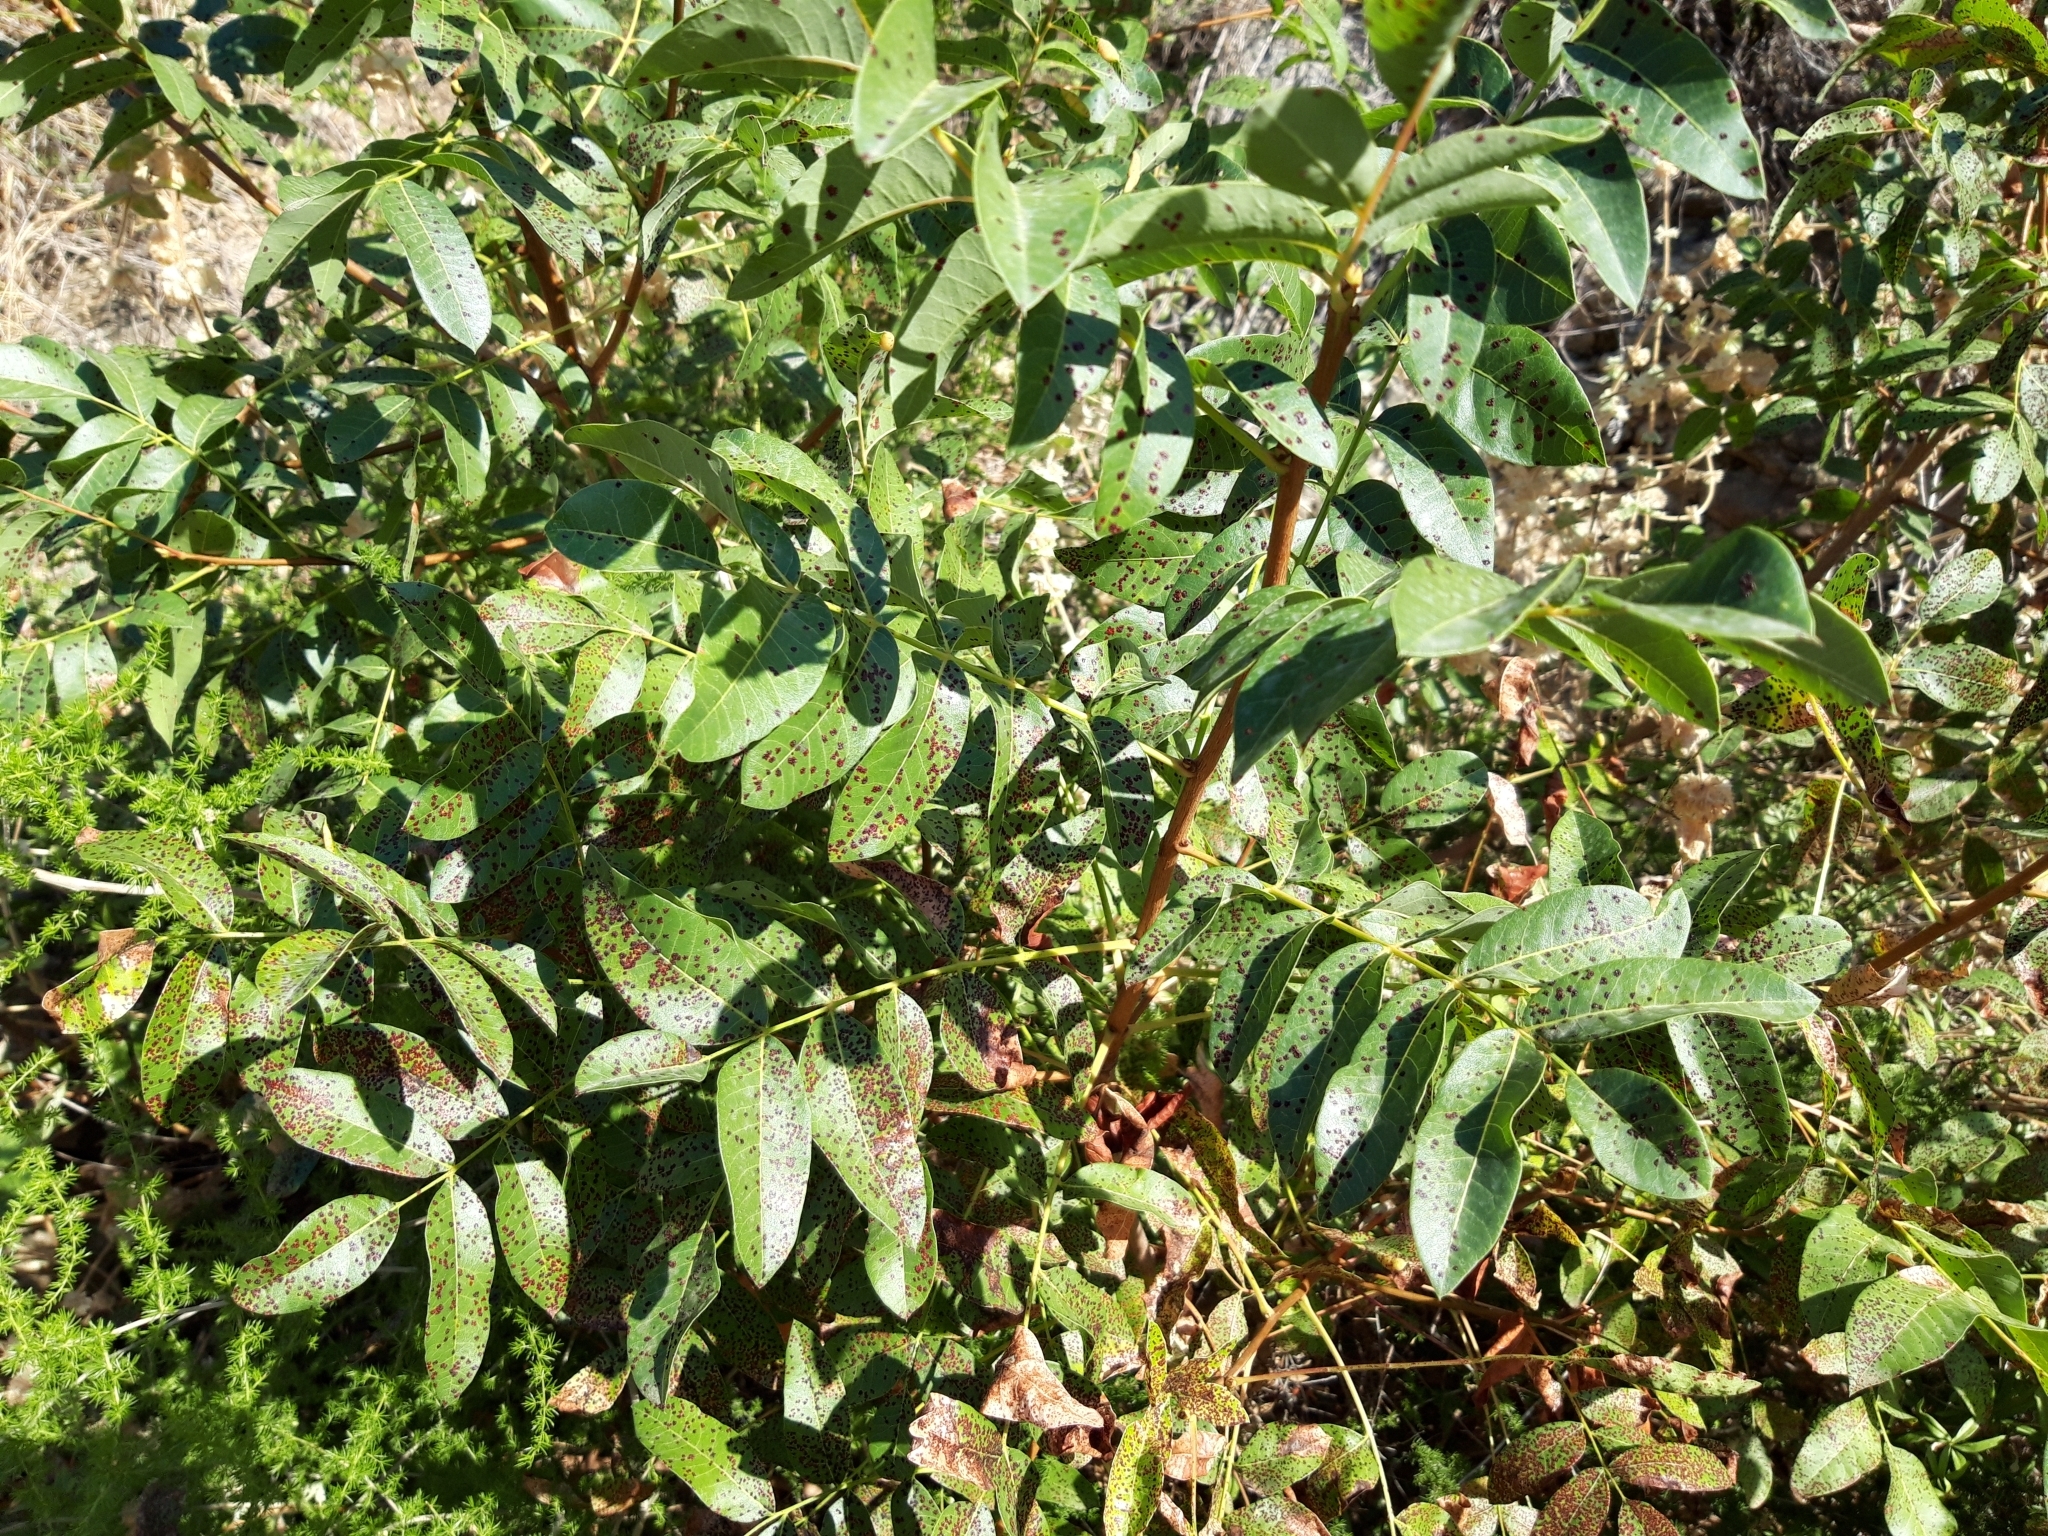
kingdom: Plantae
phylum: Tracheophyta
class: Magnoliopsida
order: Sapindales
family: Anacardiaceae
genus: Pistacia
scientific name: Pistacia terebinthus
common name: Terebinth
